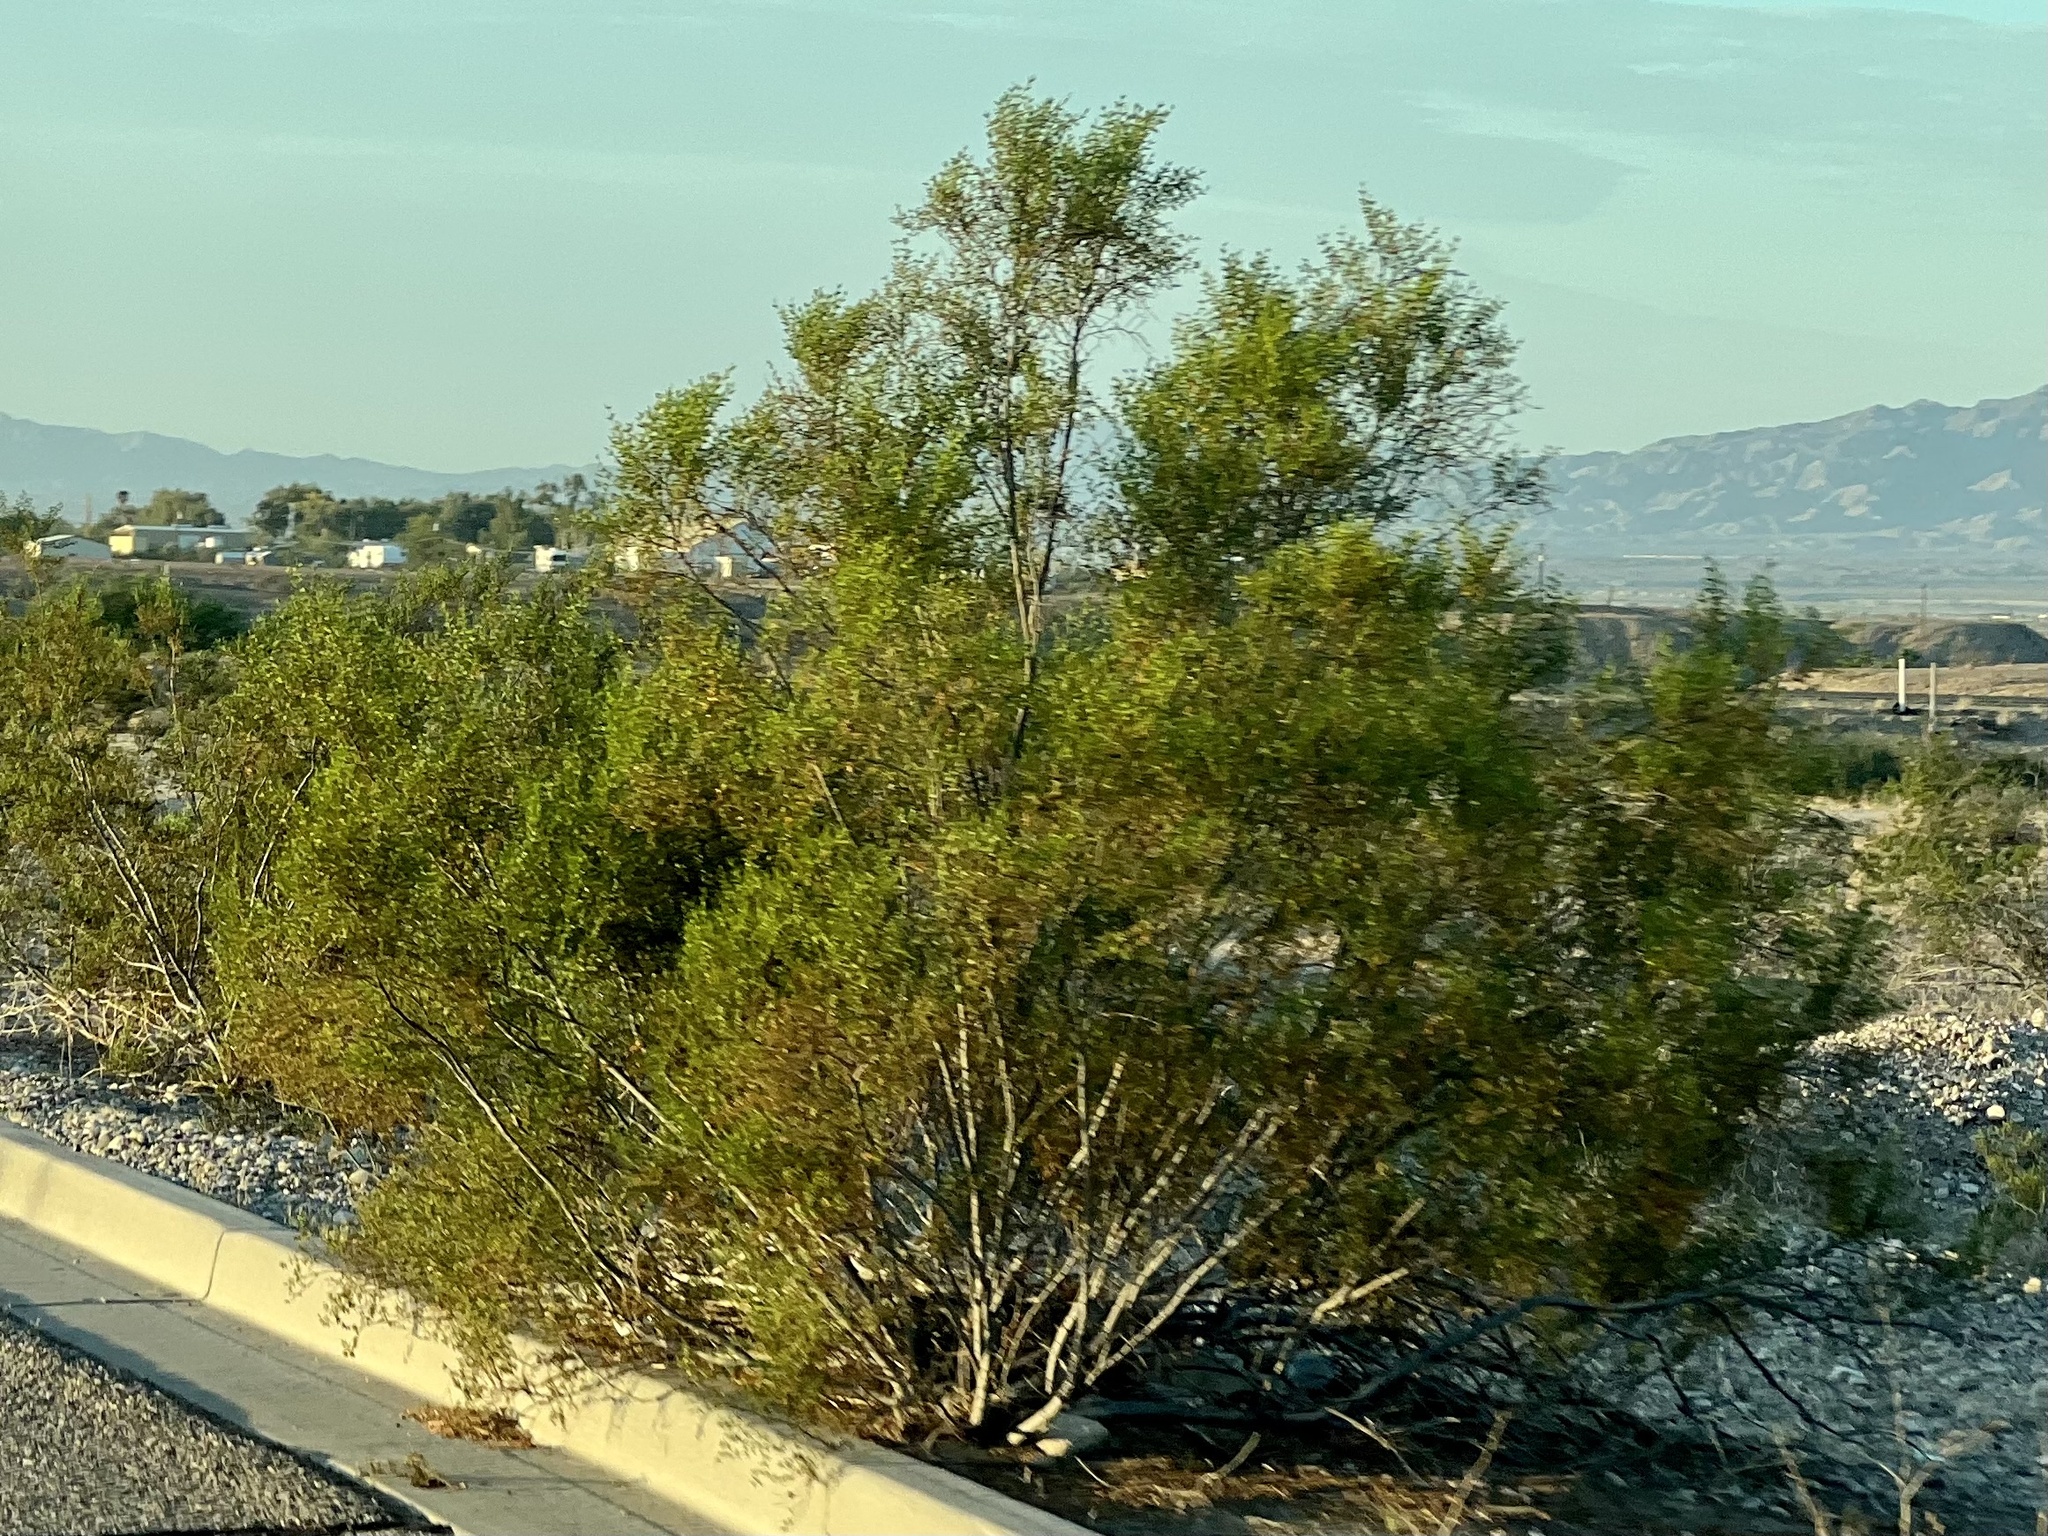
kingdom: Plantae
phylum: Tracheophyta
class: Magnoliopsida
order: Zygophyllales
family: Zygophyllaceae
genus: Larrea
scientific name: Larrea tridentata
